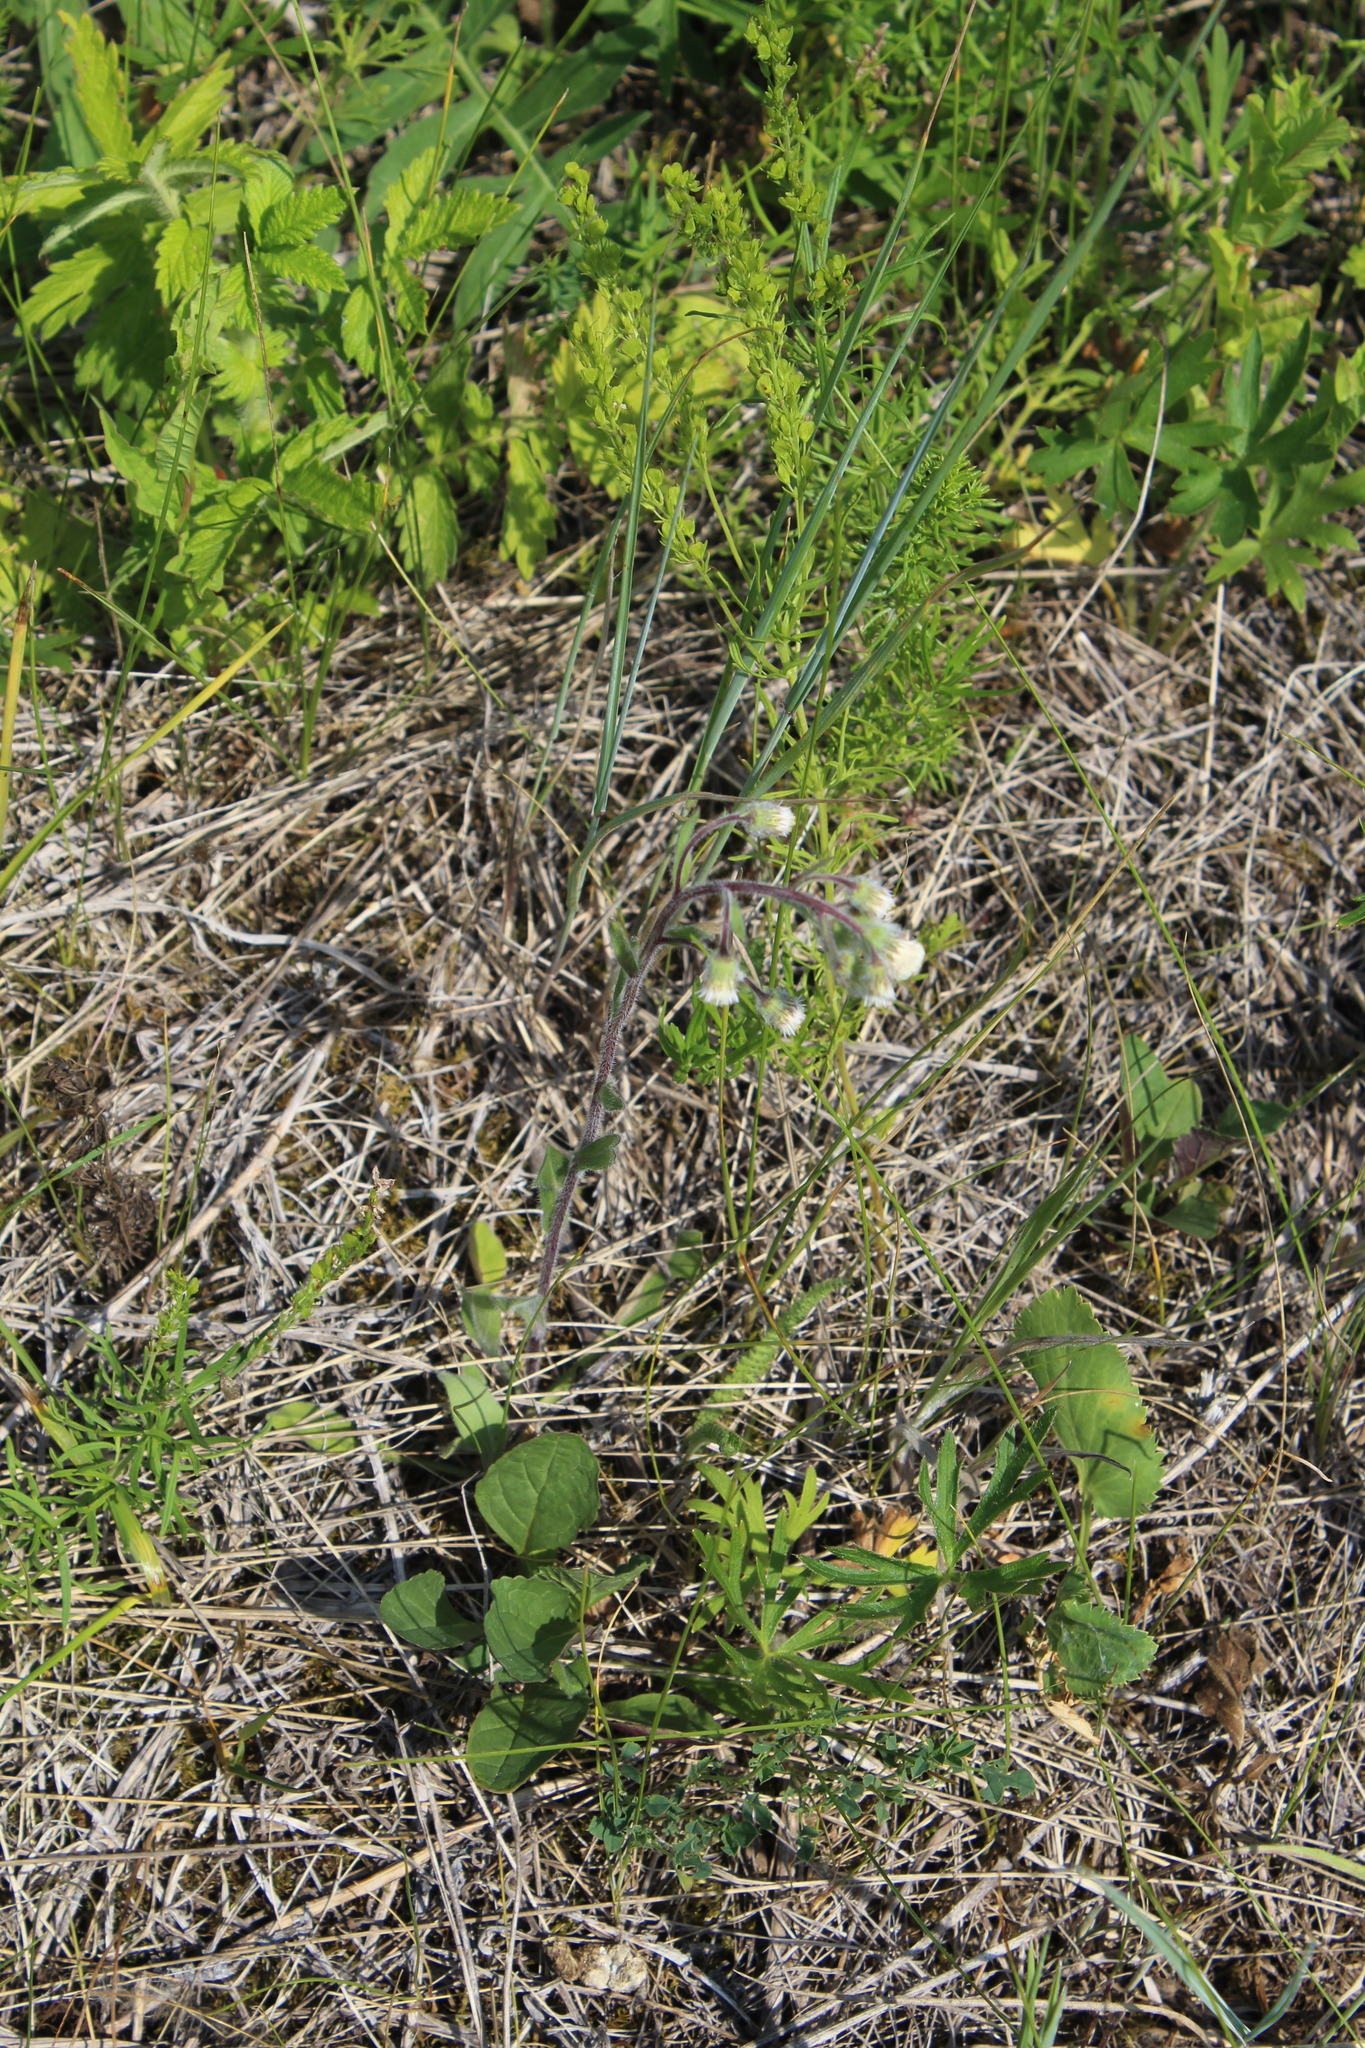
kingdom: Plantae
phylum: Tracheophyta
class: Magnoliopsida
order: Asterales
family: Asteraceae
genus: Erigeron
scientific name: Erigeron acris
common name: Blue fleabane
